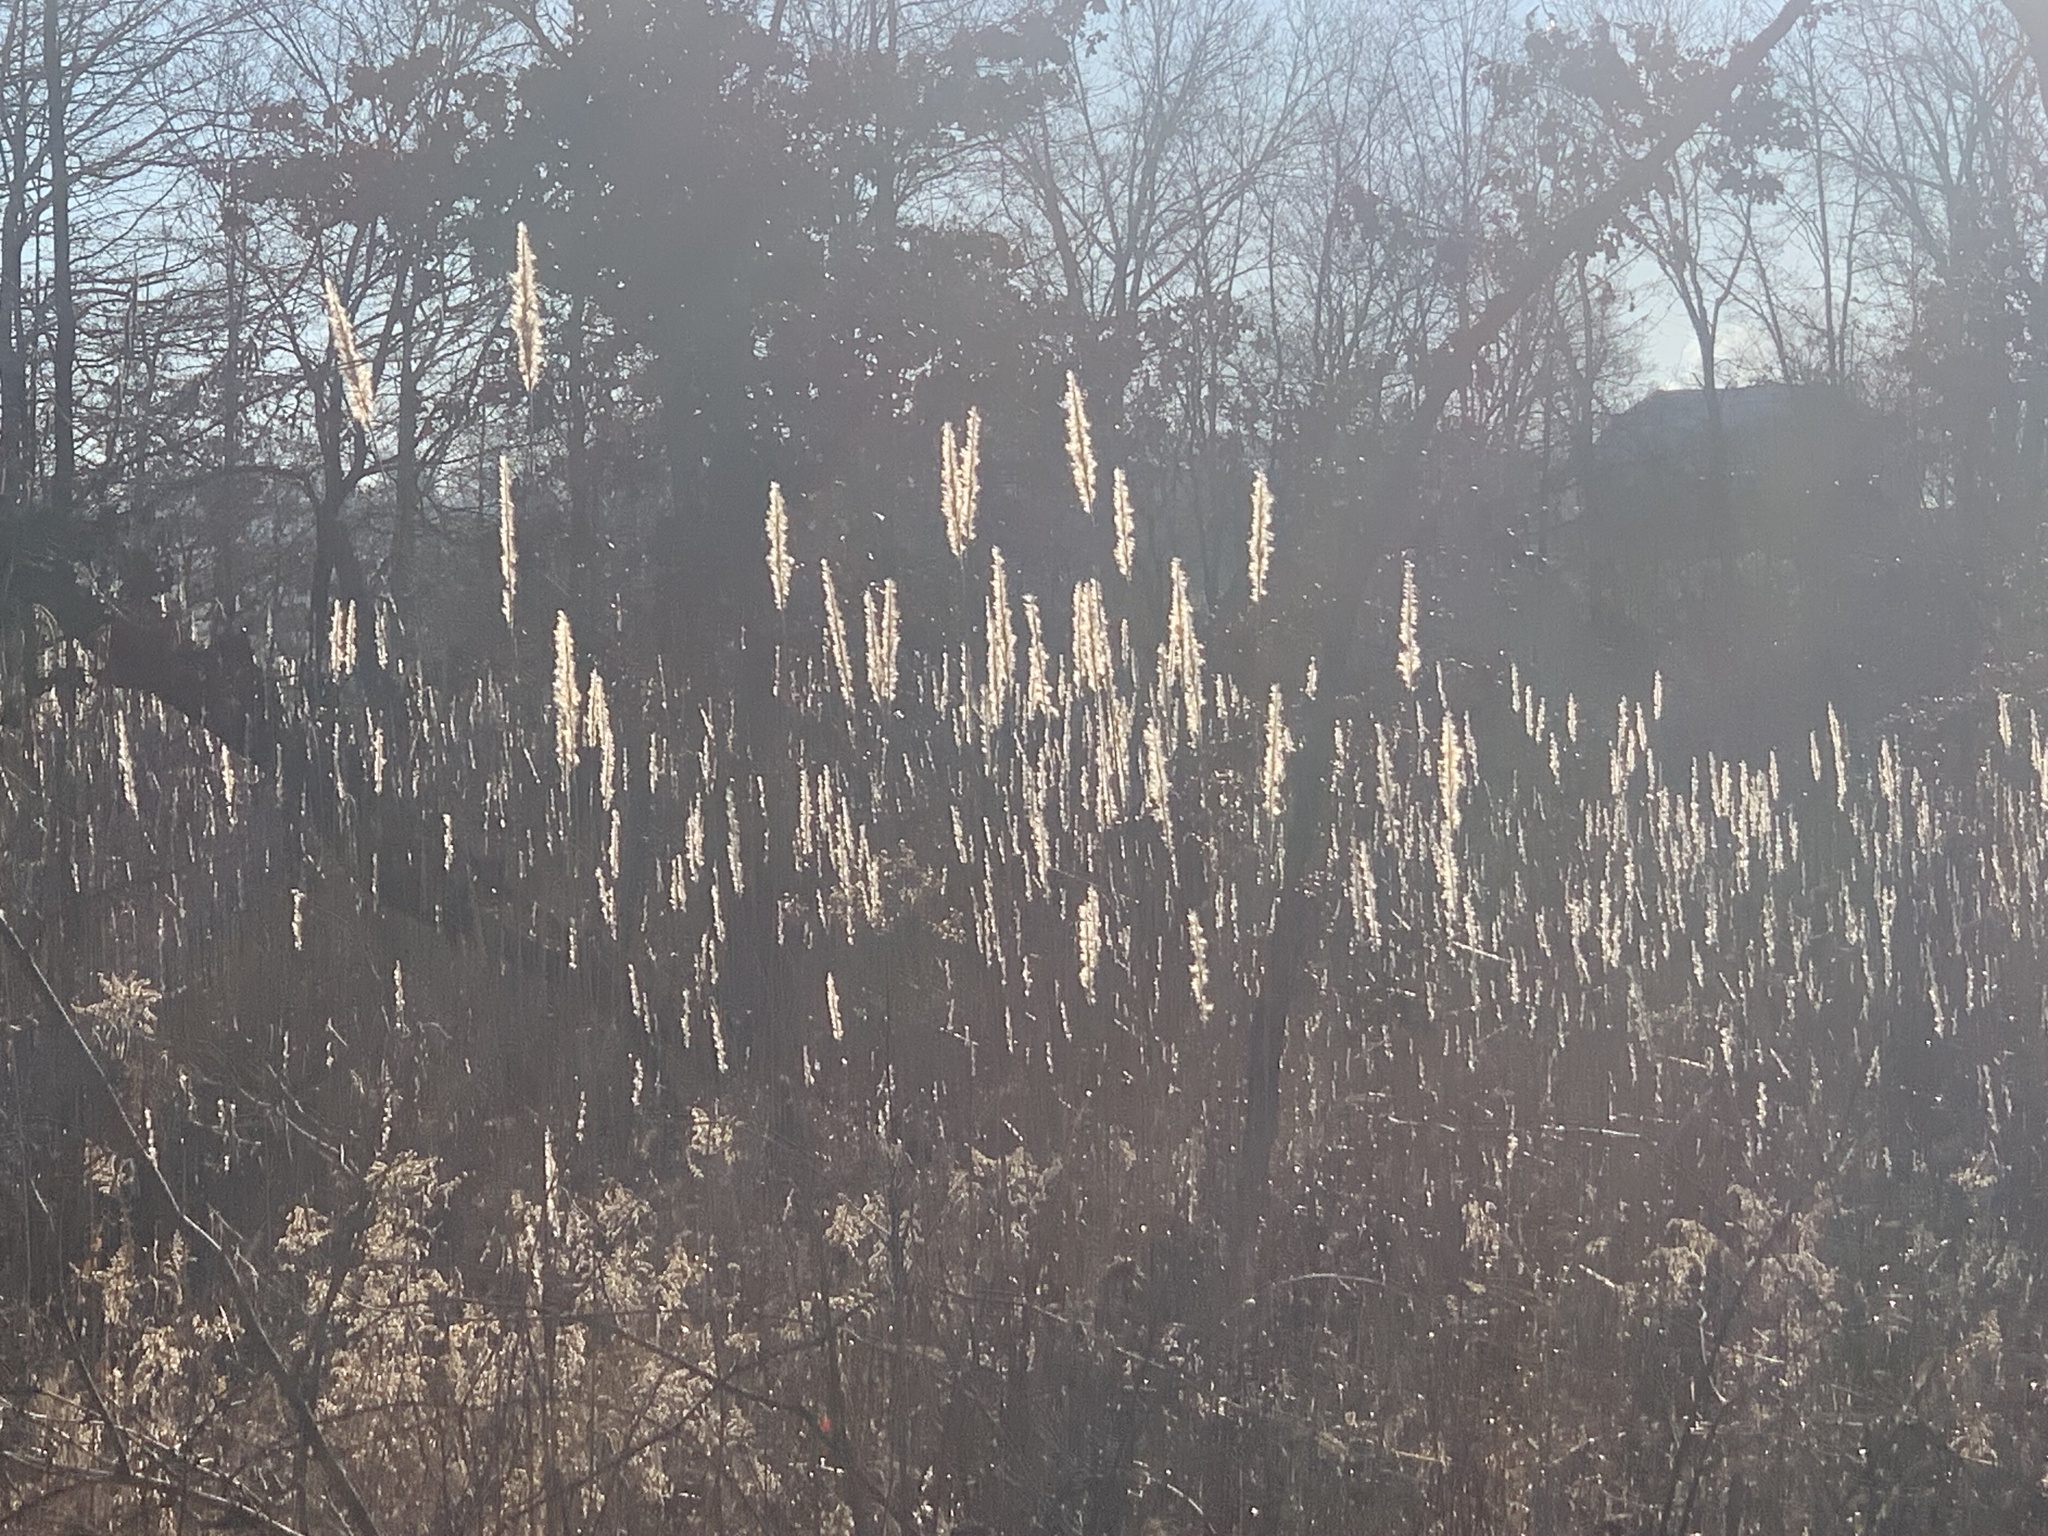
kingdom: Plantae
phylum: Tracheophyta
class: Liliopsida
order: Poales
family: Poaceae
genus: Erianthus
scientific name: Erianthus alopecuroides
